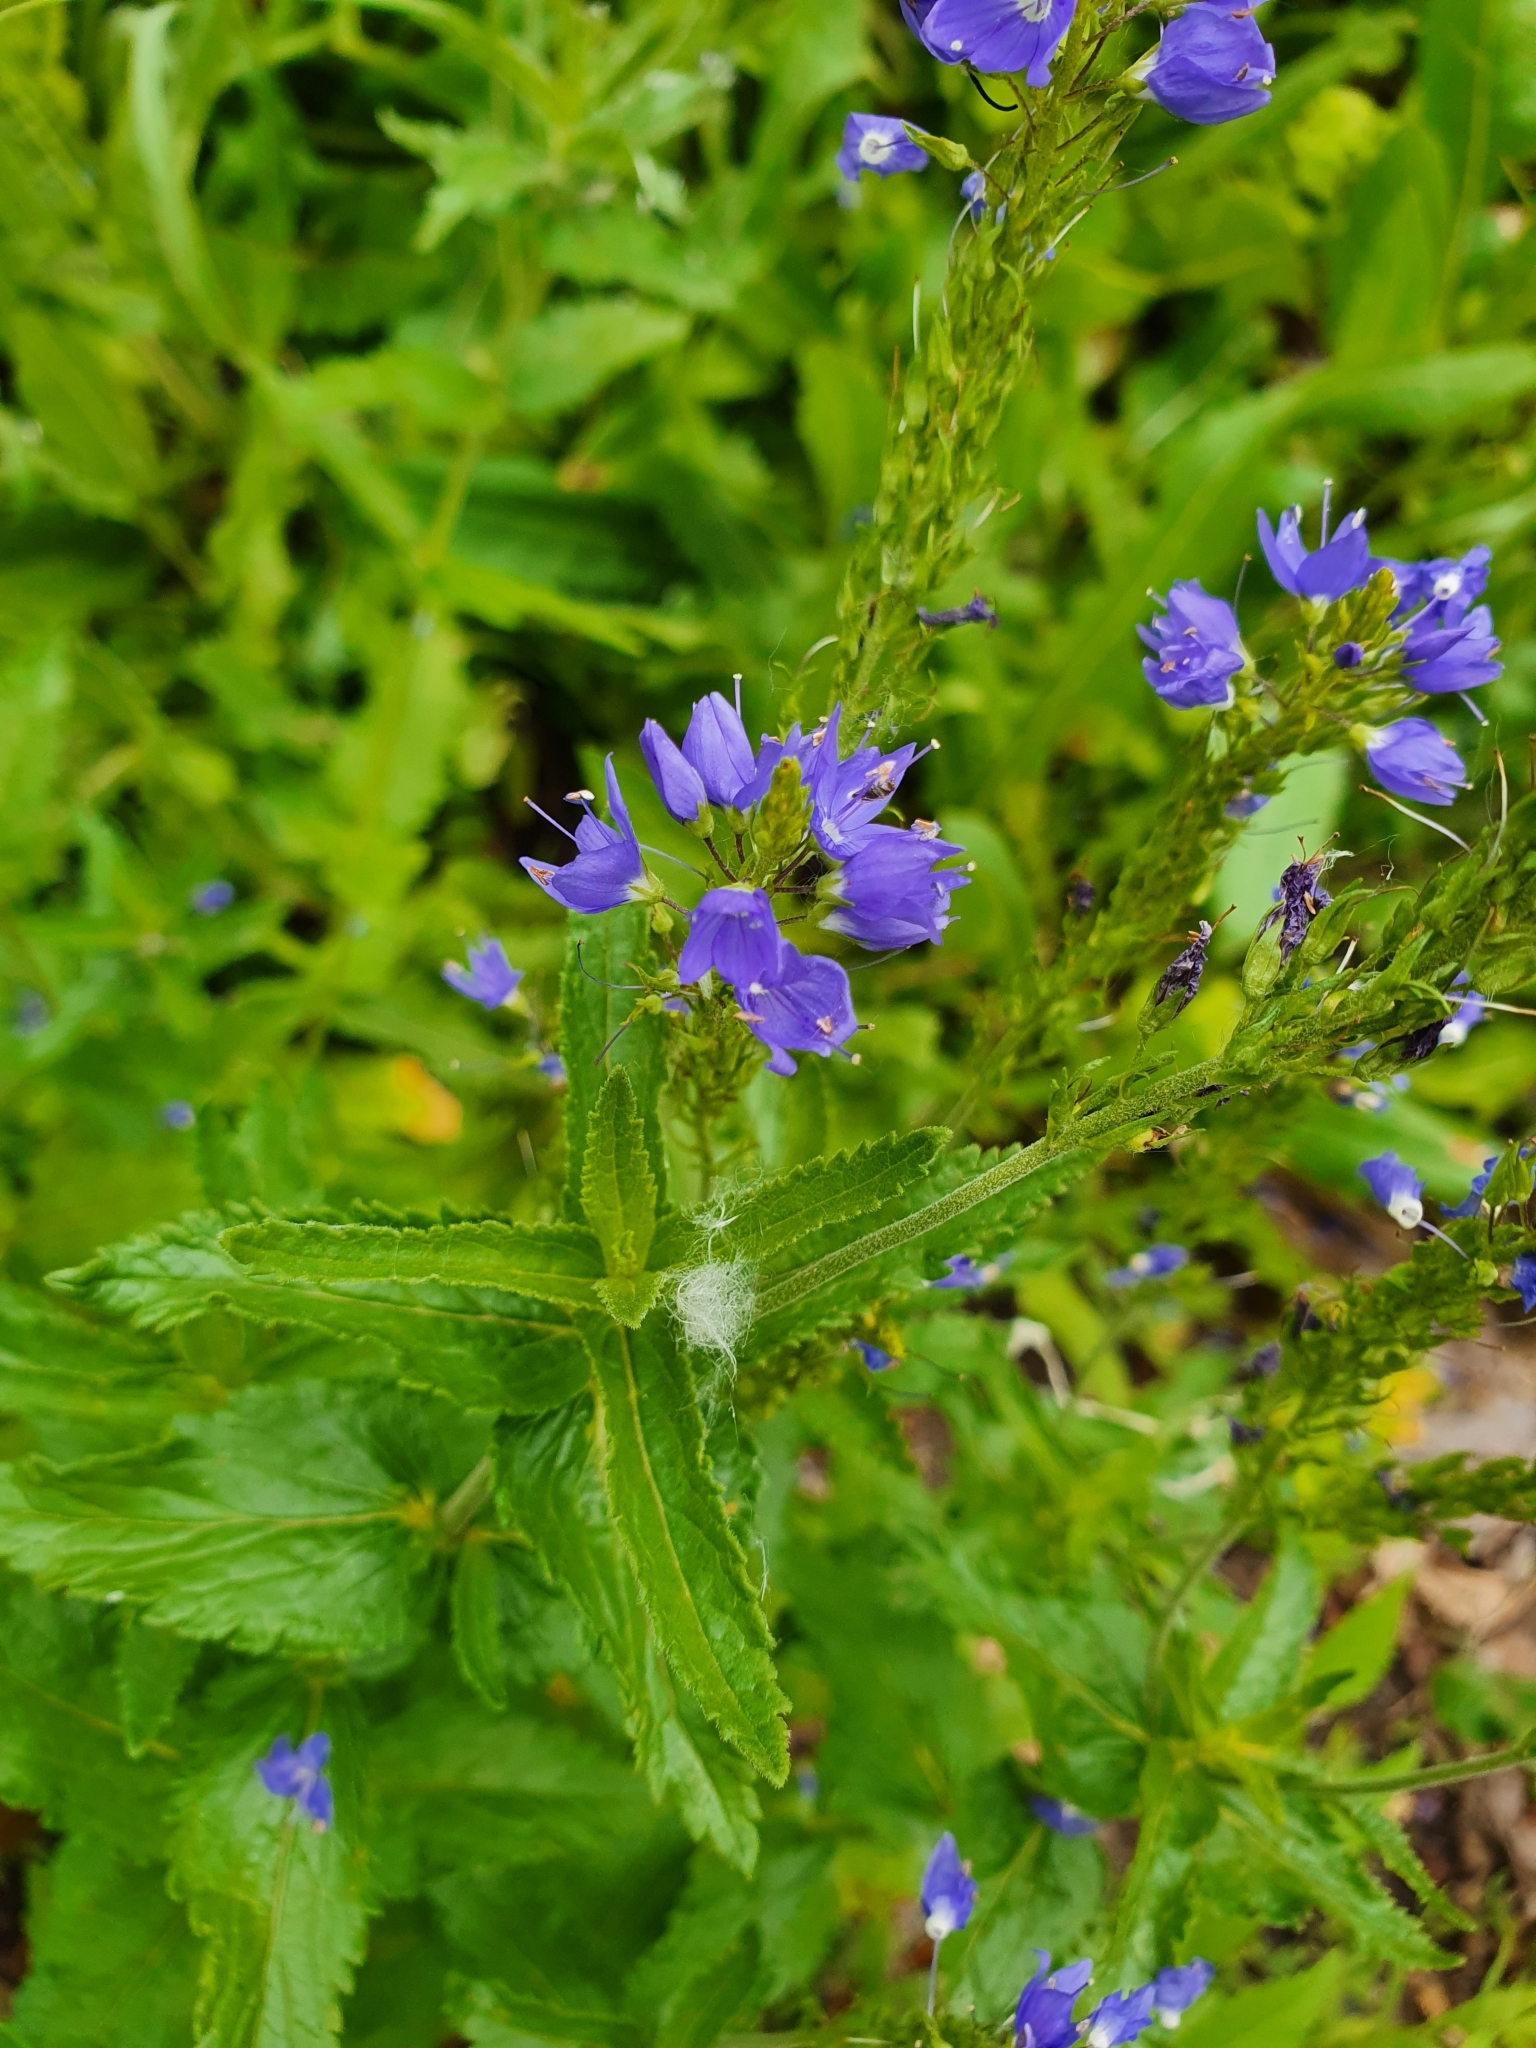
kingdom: Plantae
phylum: Tracheophyta
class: Magnoliopsida
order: Lamiales
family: Plantaginaceae
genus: Veronica
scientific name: Veronica teucrium
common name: Large speedwell
